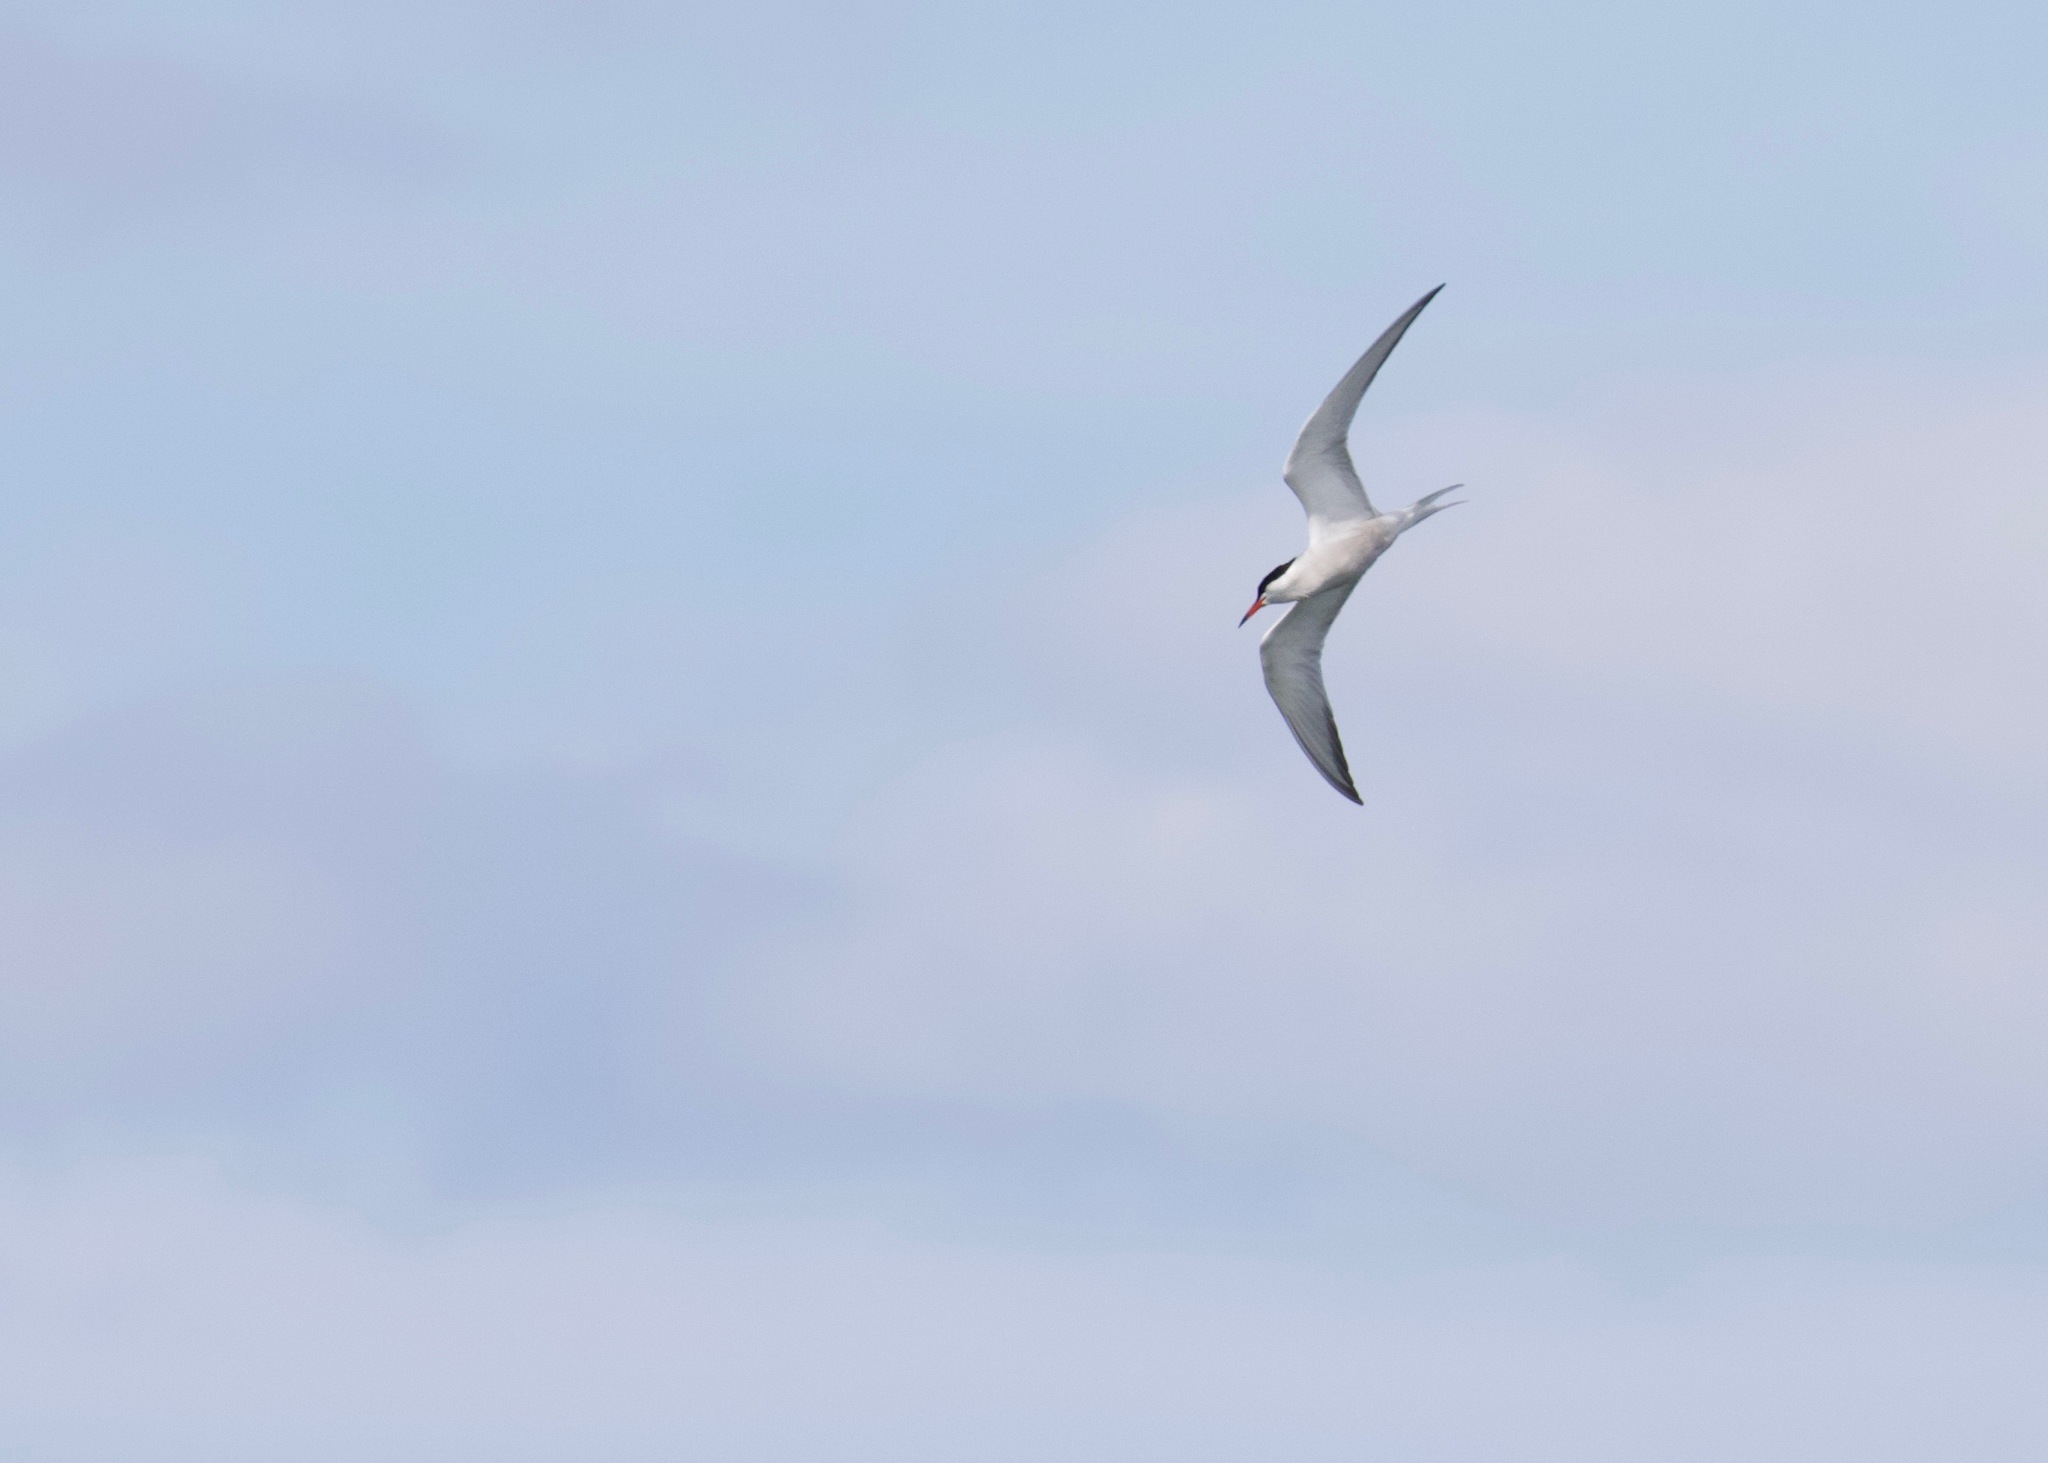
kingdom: Animalia
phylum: Chordata
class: Aves
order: Charadriiformes
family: Laridae
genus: Sterna
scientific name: Sterna hirundo
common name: Common tern
